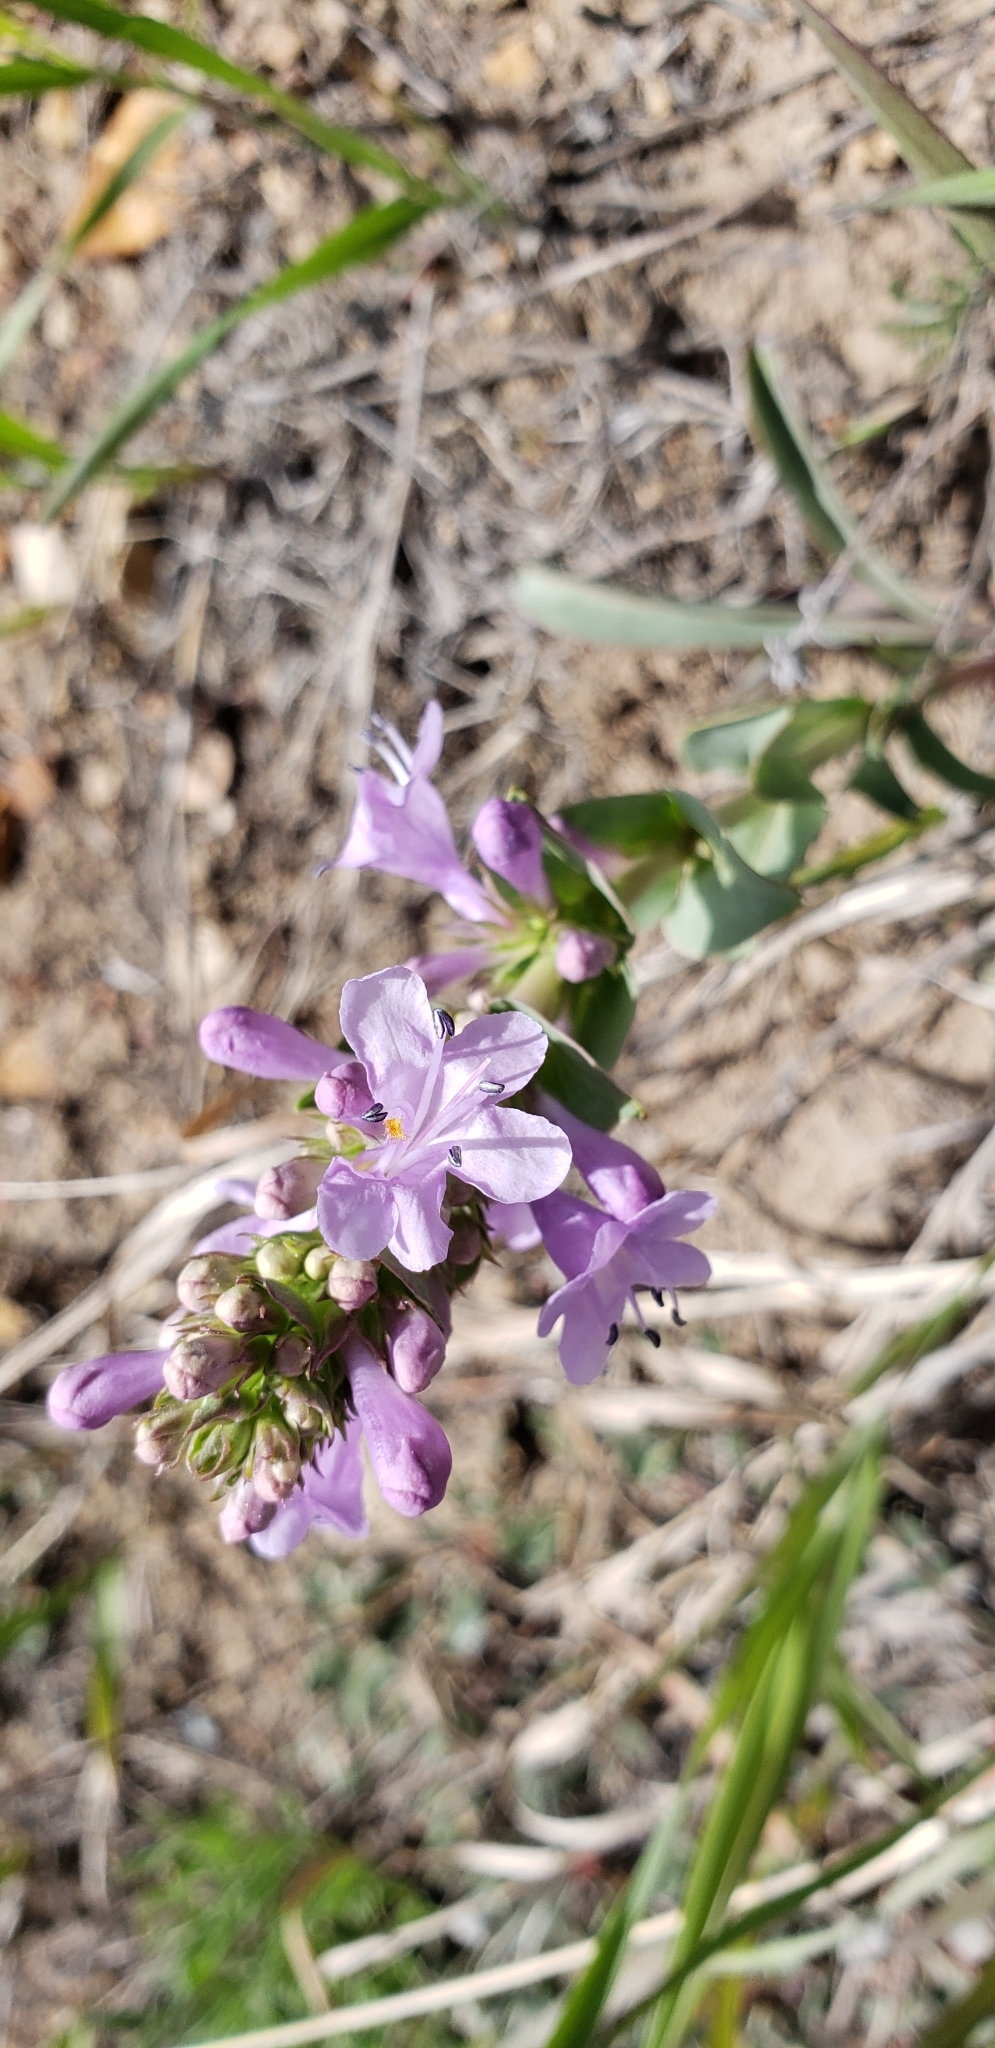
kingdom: Plantae
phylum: Tracheophyta
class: Magnoliopsida
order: Lamiales
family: Plantaginaceae
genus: Penstemon
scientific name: Penstemon cyathophorus
